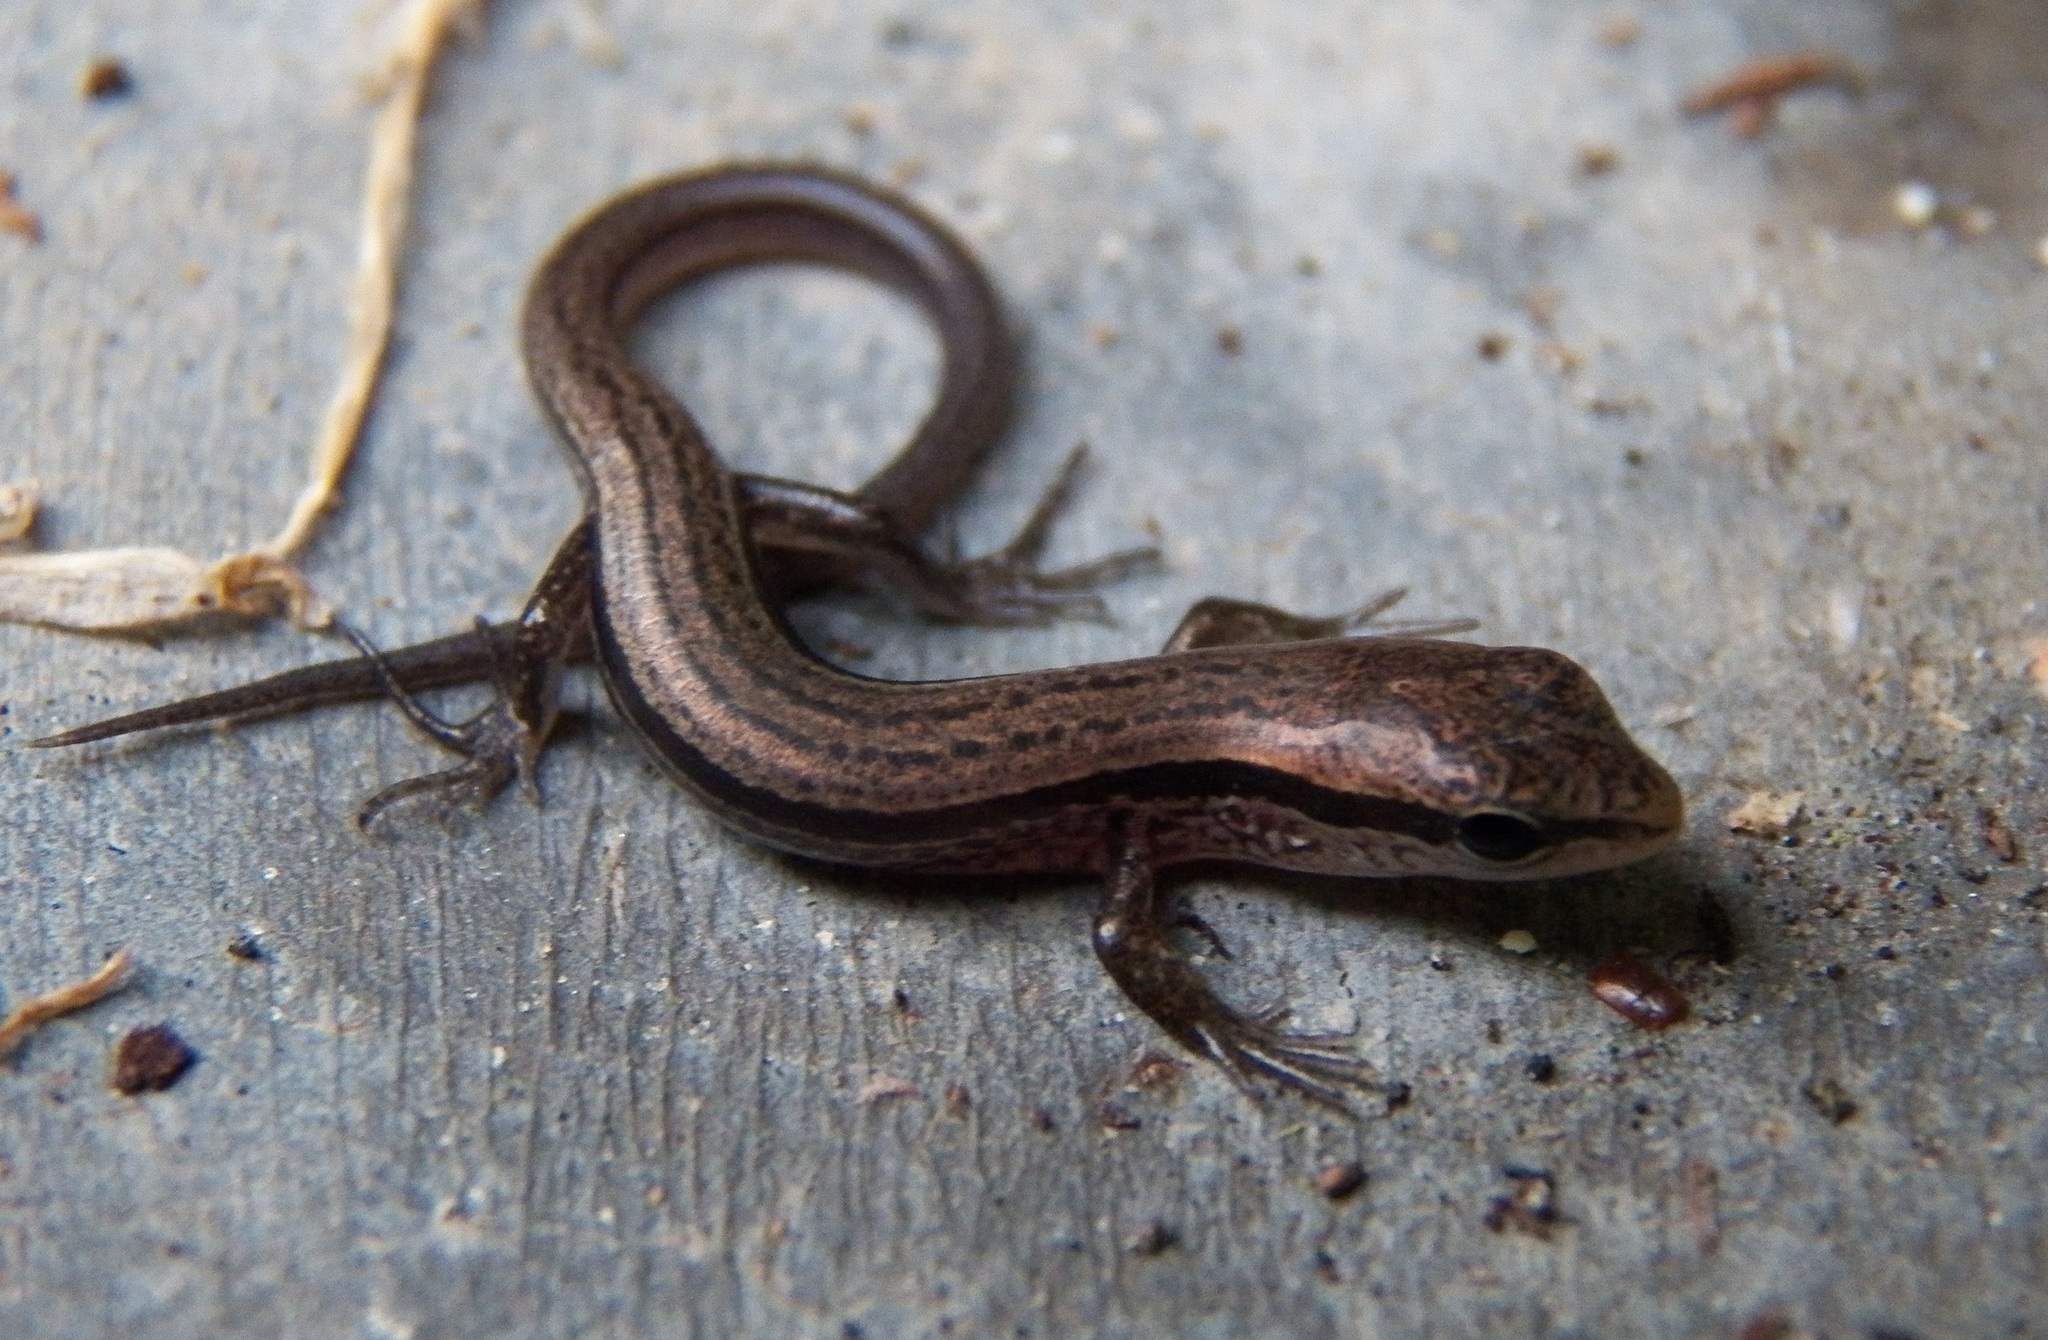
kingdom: Animalia
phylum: Chordata
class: Squamata
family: Scincidae
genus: Scincella
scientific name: Scincella lateralis
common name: Ground skink
